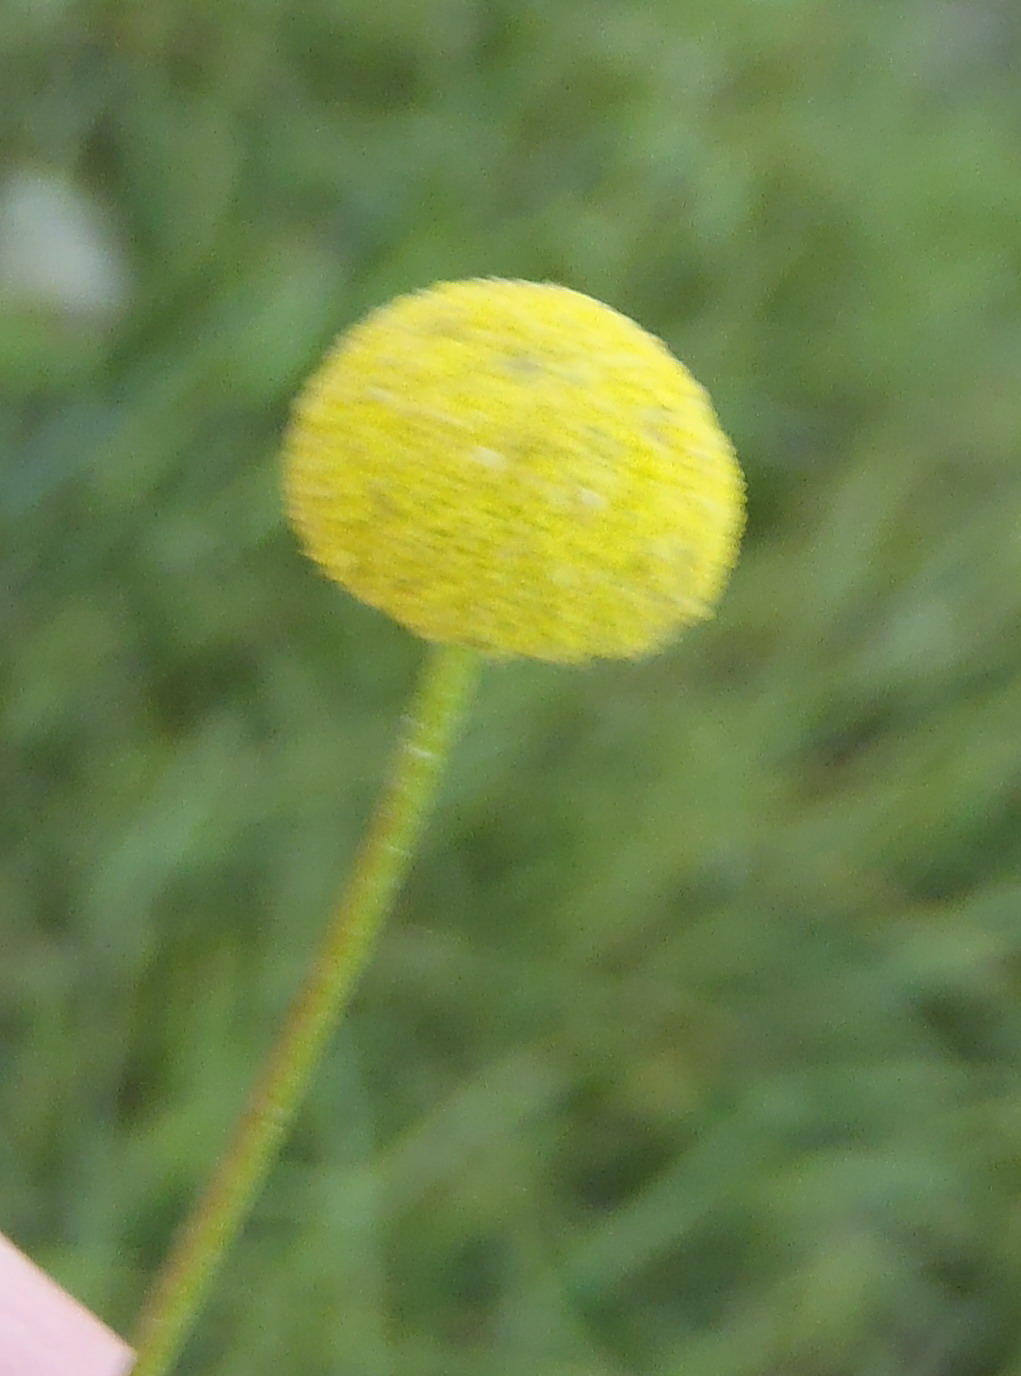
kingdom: Plantae
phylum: Tracheophyta
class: Magnoliopsida
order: Asterales
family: Asteraceae
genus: Cotula
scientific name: Cotula lineariloba
